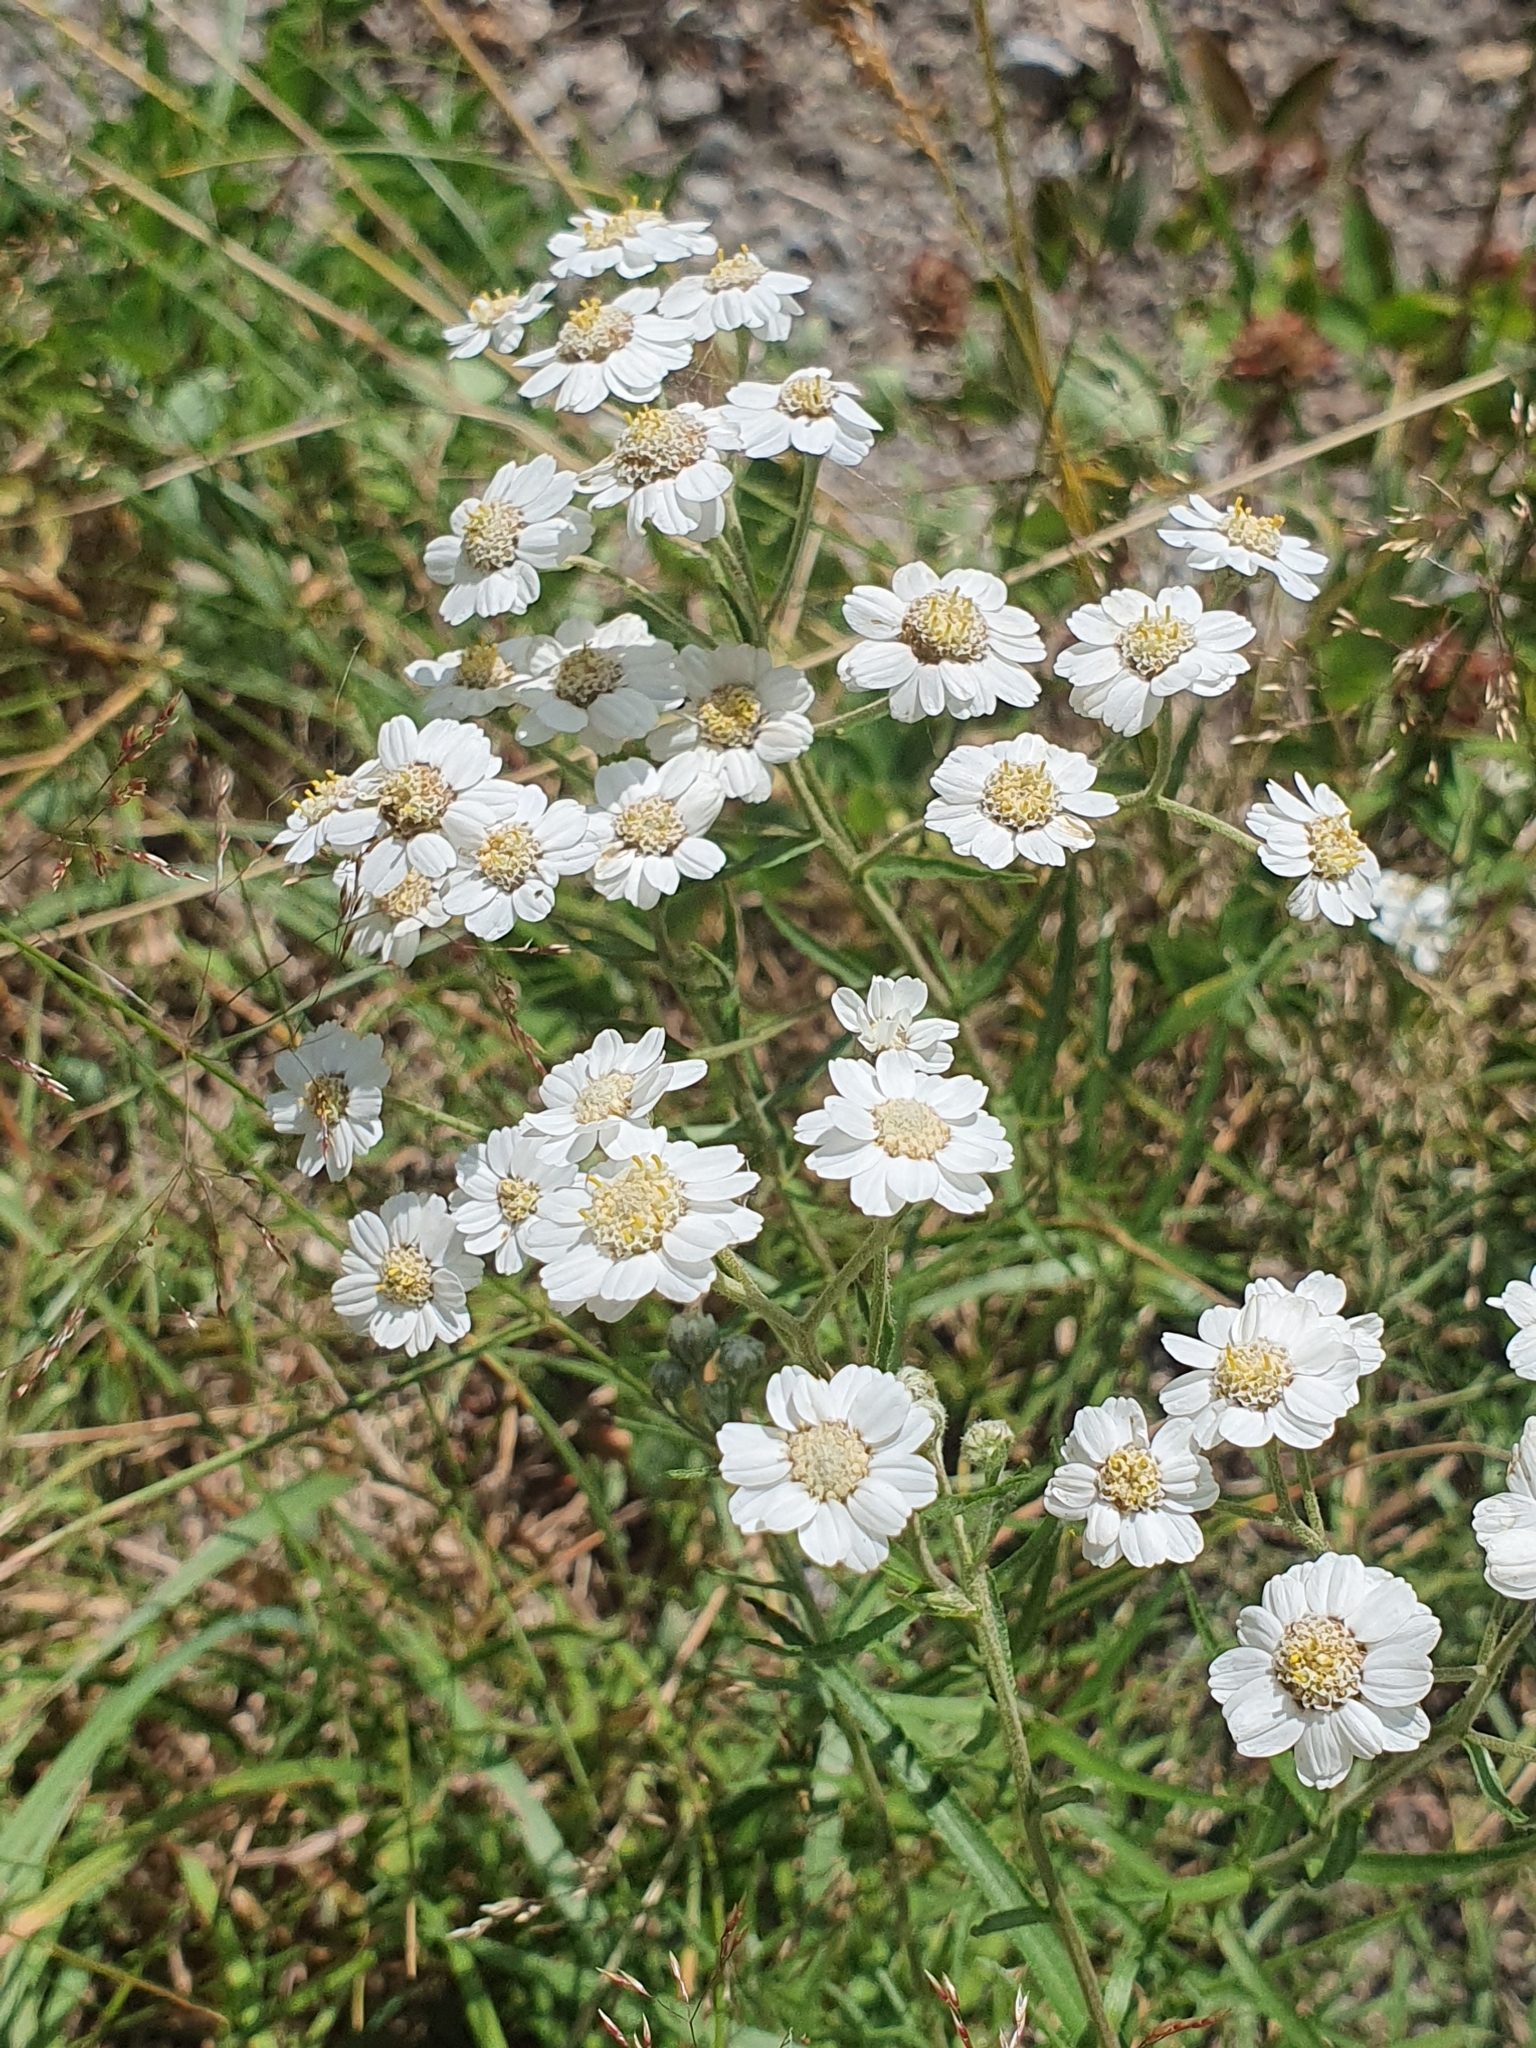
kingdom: Plantae
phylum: Tracheophyta
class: Magnoliopsida
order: Asterales
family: Asteraceae
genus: Achillea
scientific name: Achillea ptarmica
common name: Sneezeweed
